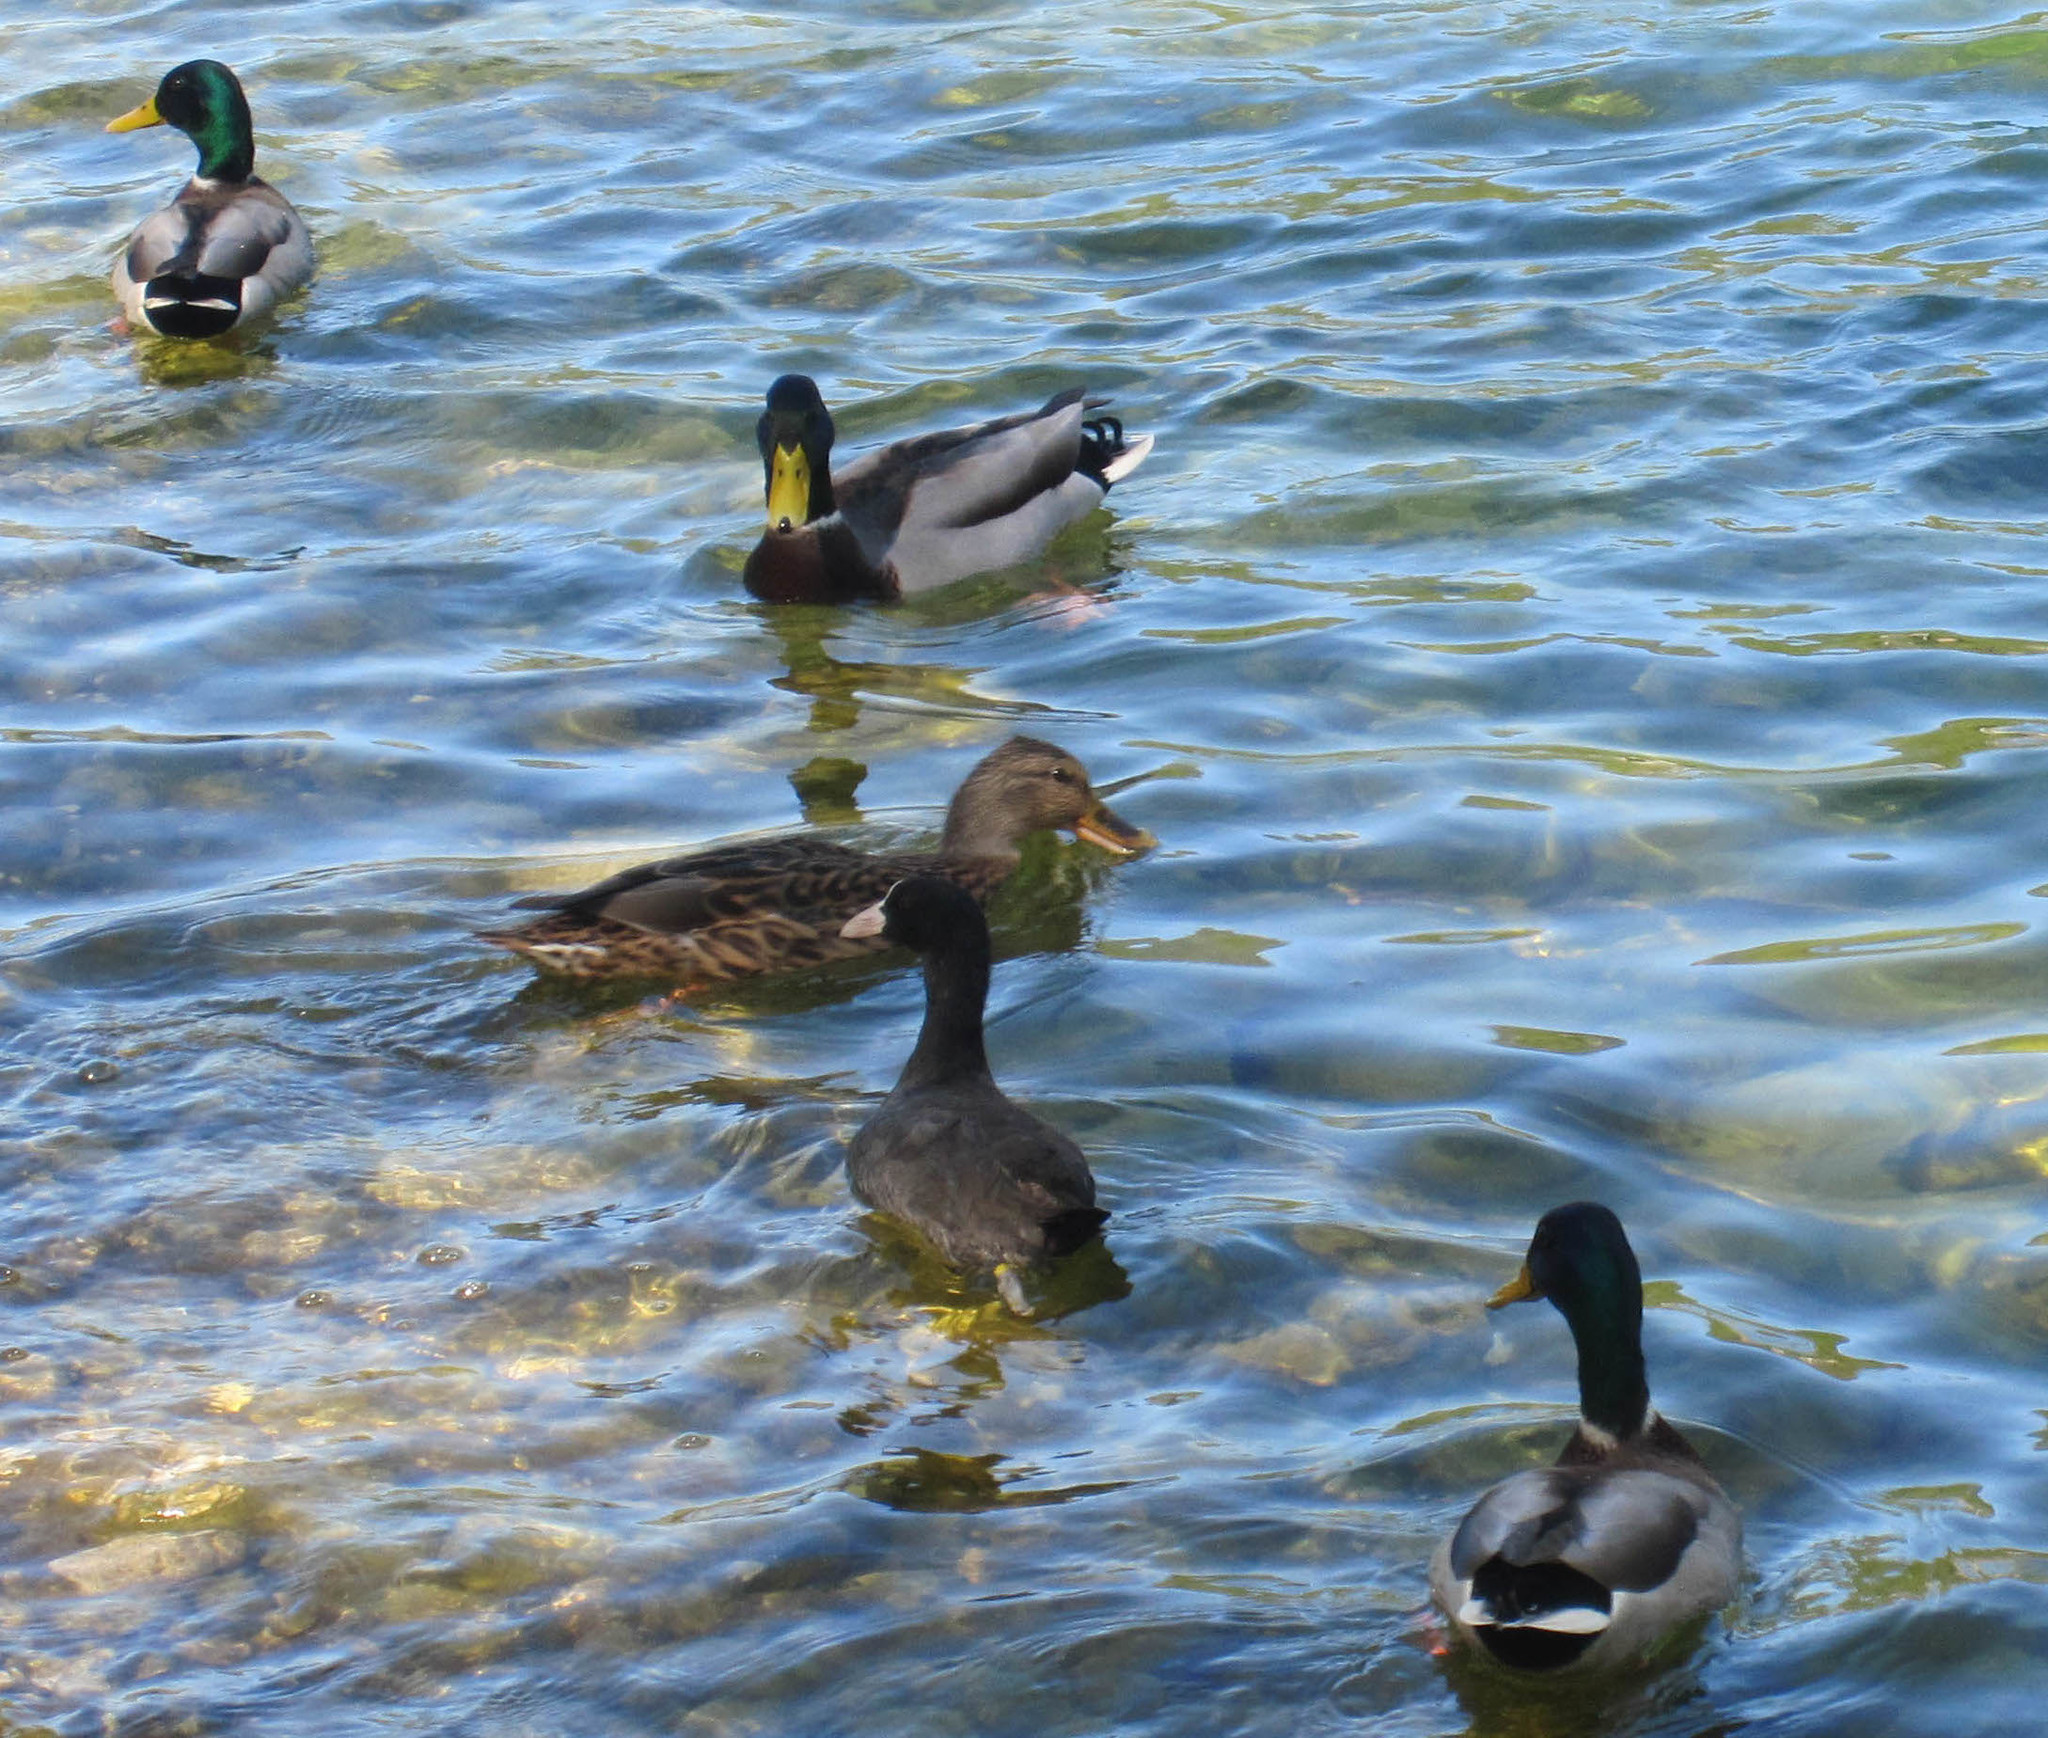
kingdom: Animalia
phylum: Chordata
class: Aves
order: Anseriformes
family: Anatidae
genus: Anas
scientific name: Anas platyrhynchos
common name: Mallard
